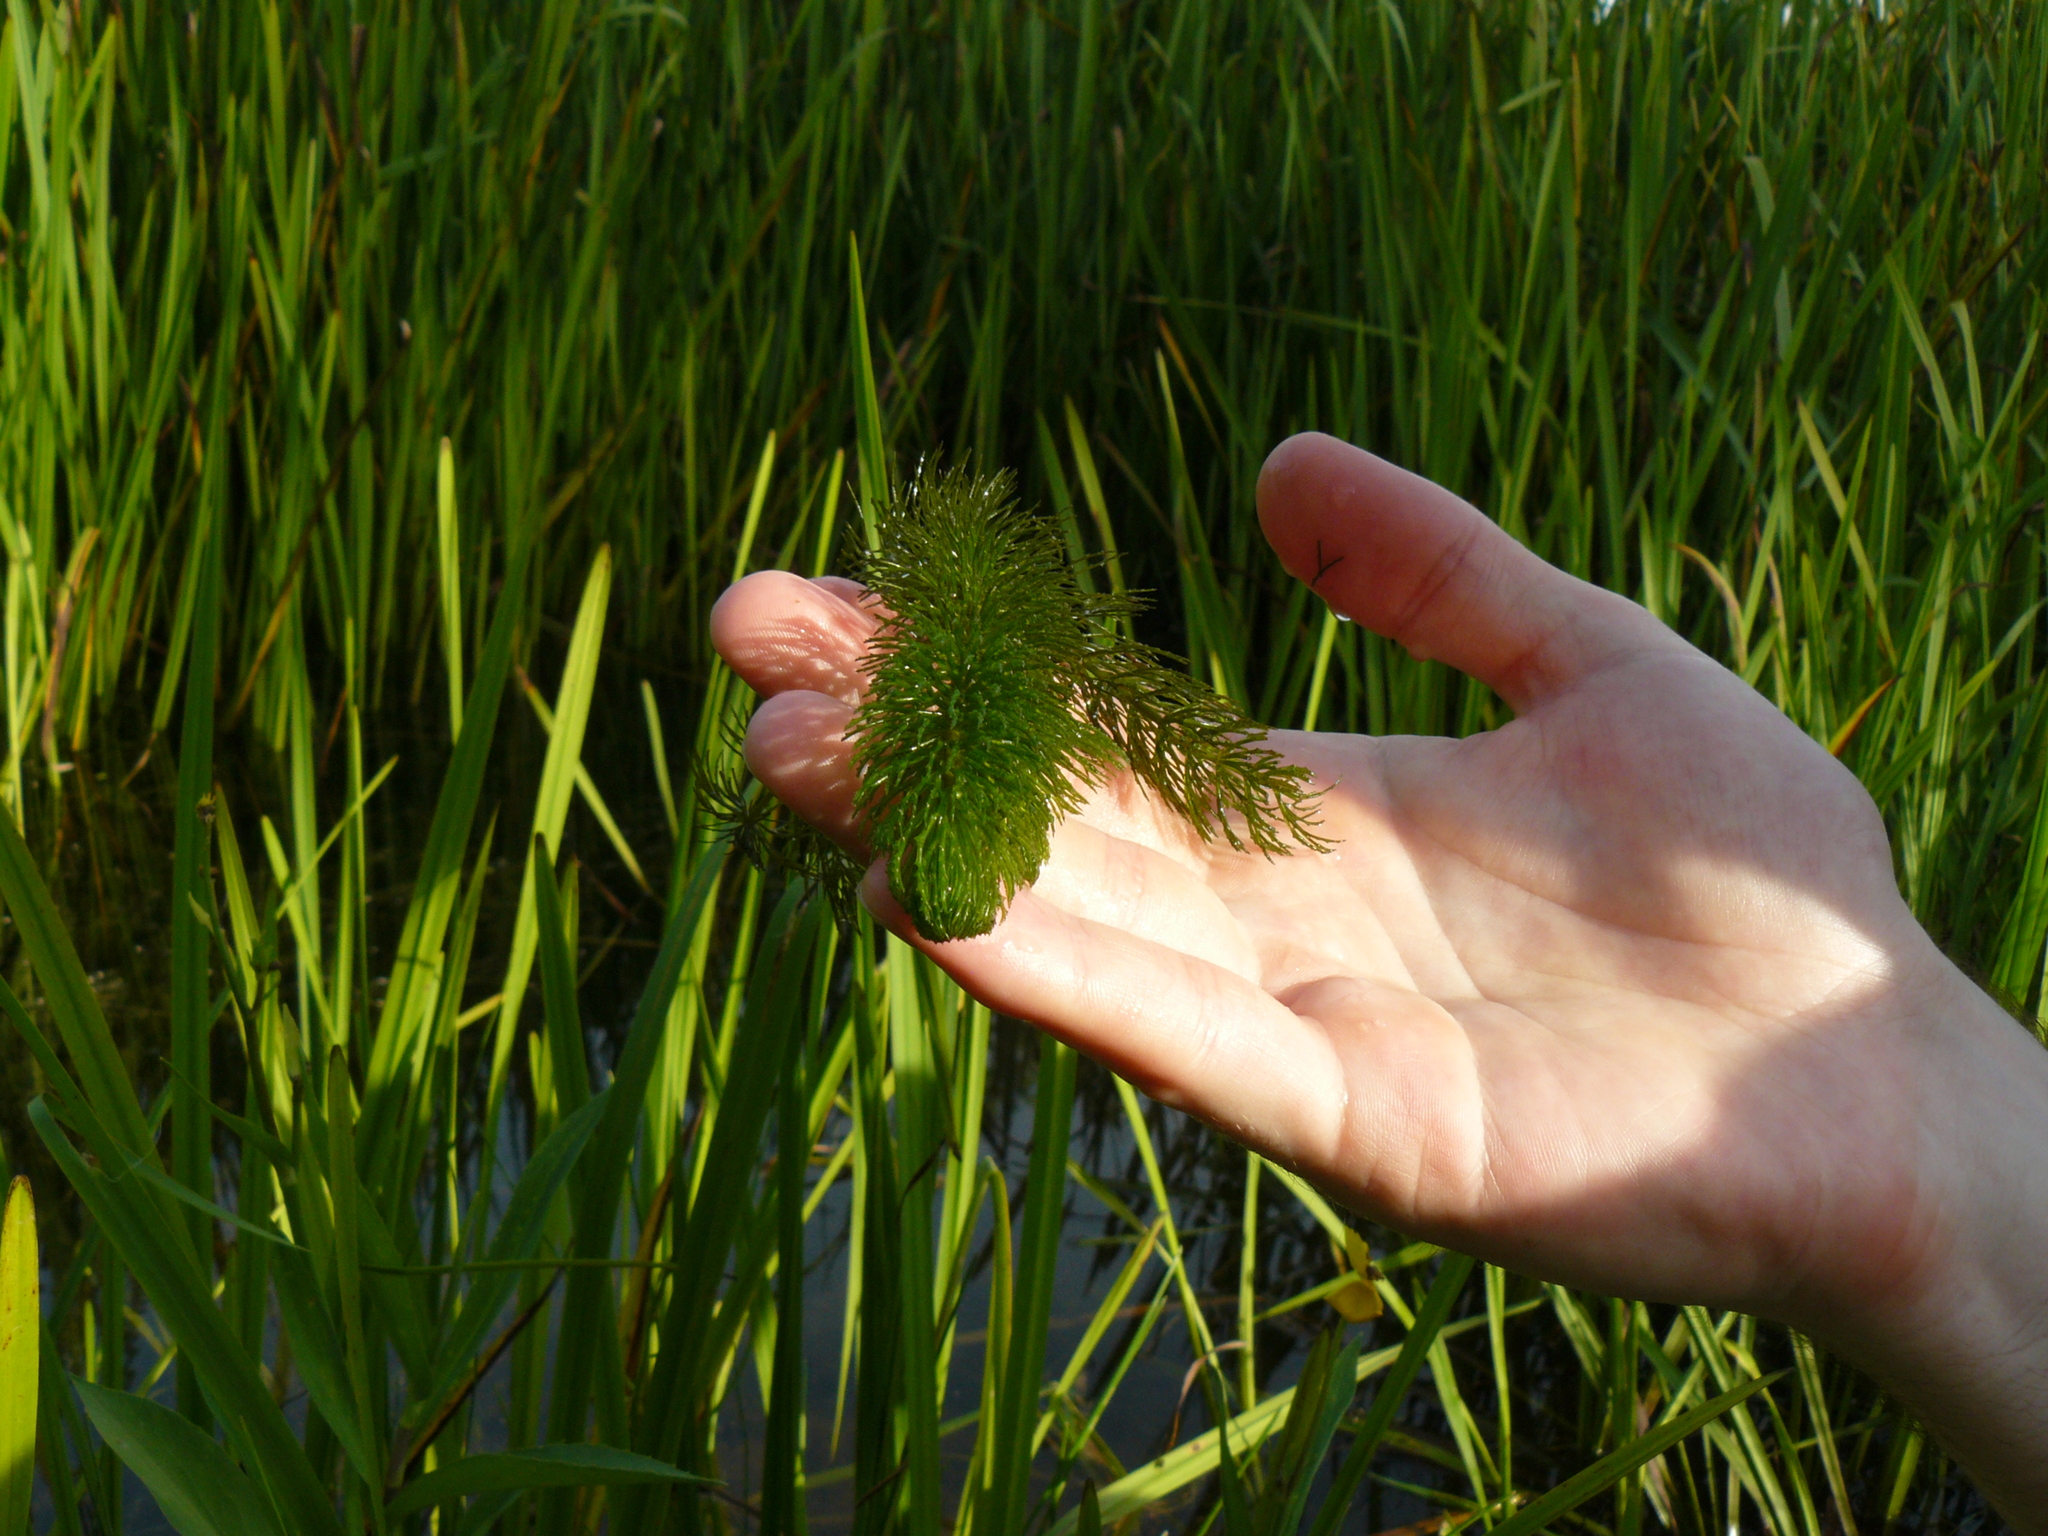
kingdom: Plantae
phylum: Tracheophyta
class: Magnoliopsida
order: Ceratophyllales
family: Ceratophyllaceae
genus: Ceratophyllum
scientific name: Ceratophyllum demersum
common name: Rigid hornwort
